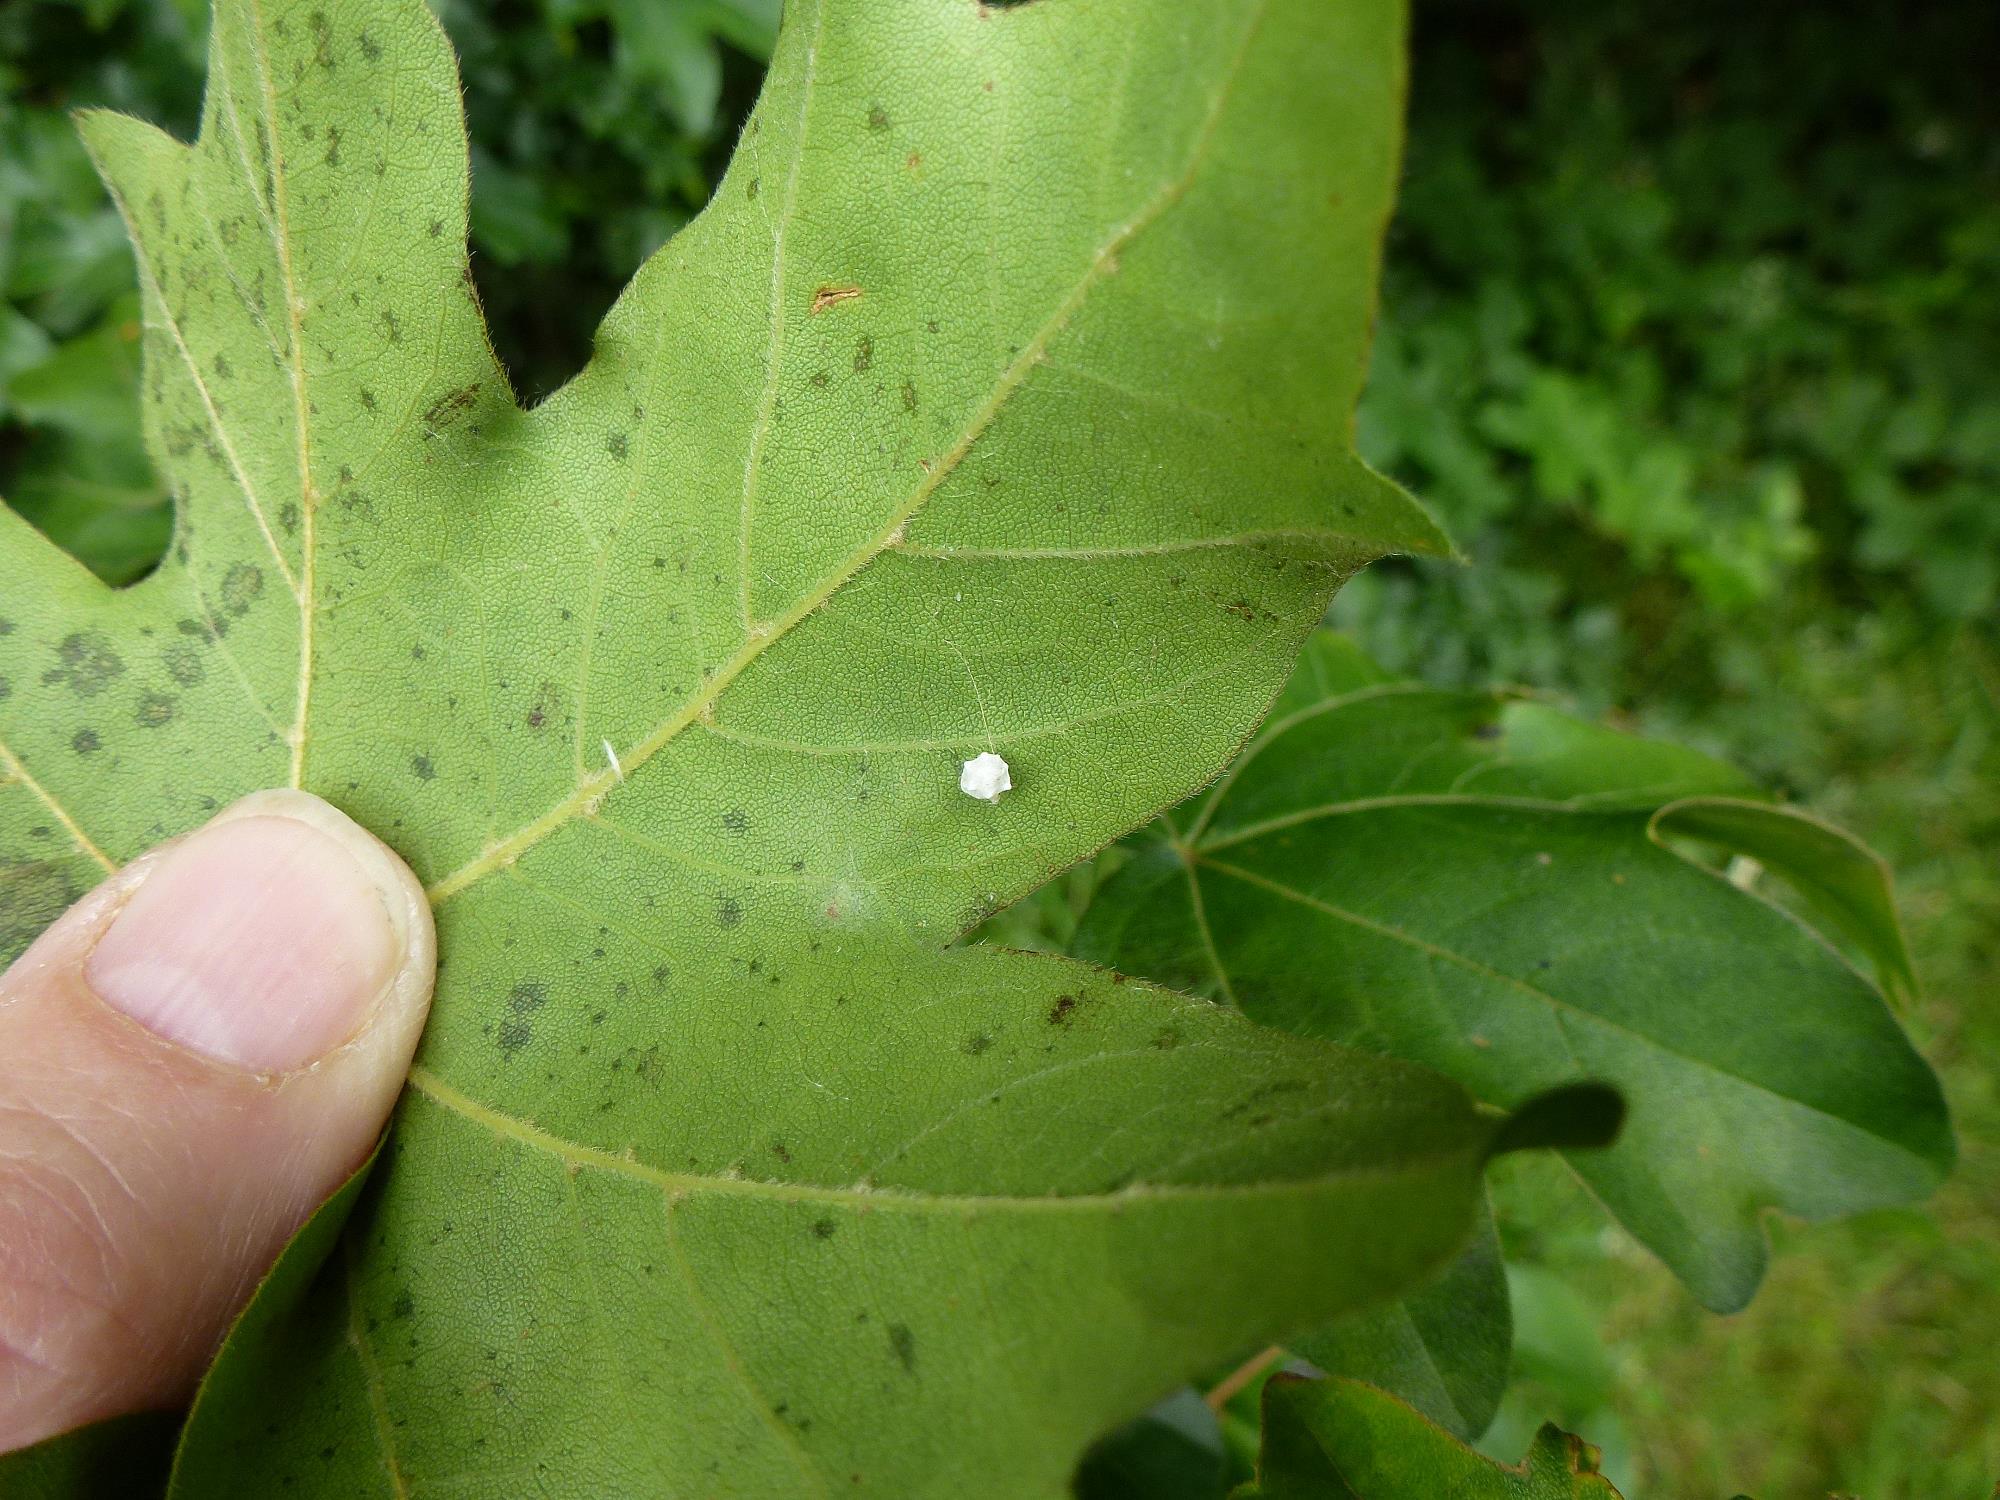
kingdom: Animalia
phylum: Arthropoda
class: Arachnida
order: Araneae
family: Theridiidae
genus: Paidiscura
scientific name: Paidiscura pallens
